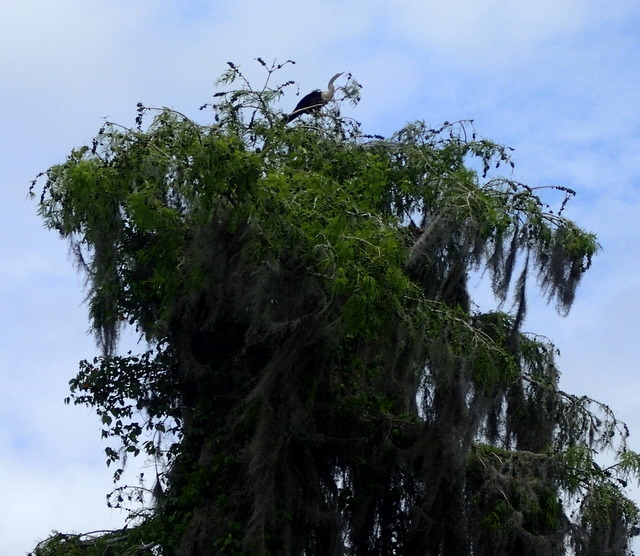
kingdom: Animalia
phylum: Chordata
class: Aves
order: Suliformes
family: Anhingidae
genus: Anhinga
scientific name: Anhinga anhinga
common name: Anhinga
